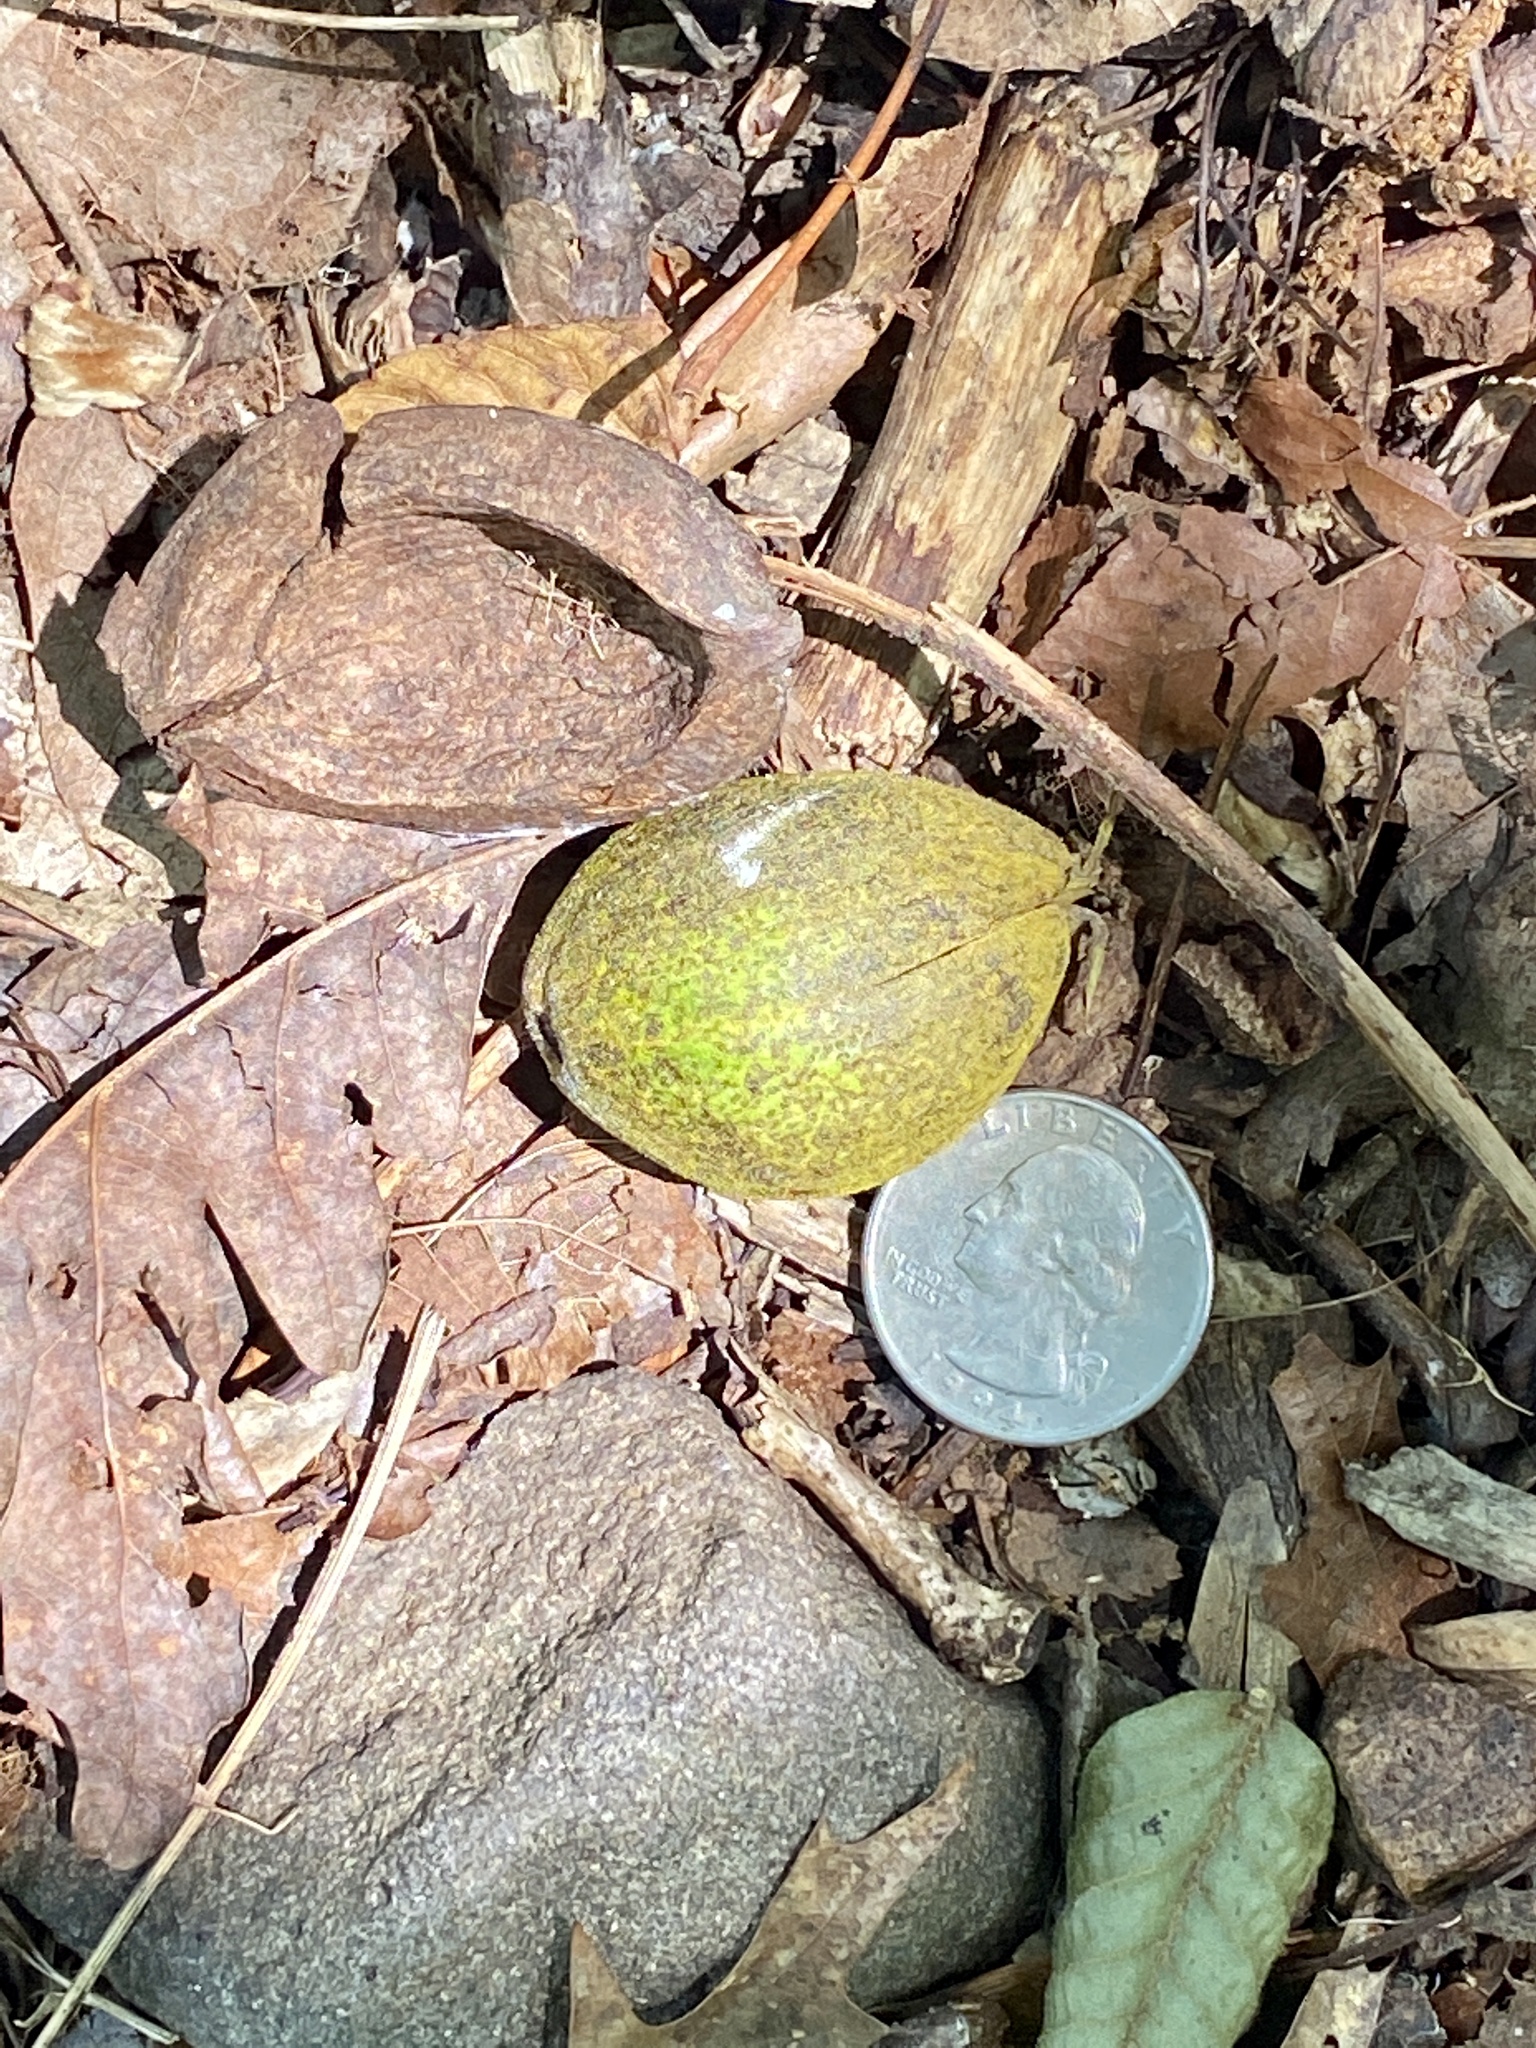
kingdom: Plantae
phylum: Tracheophyta
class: Magnoliopsida
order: Fagales
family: Juglandaceae
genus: Carya
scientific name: Carya alba
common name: Mockernut hickory
